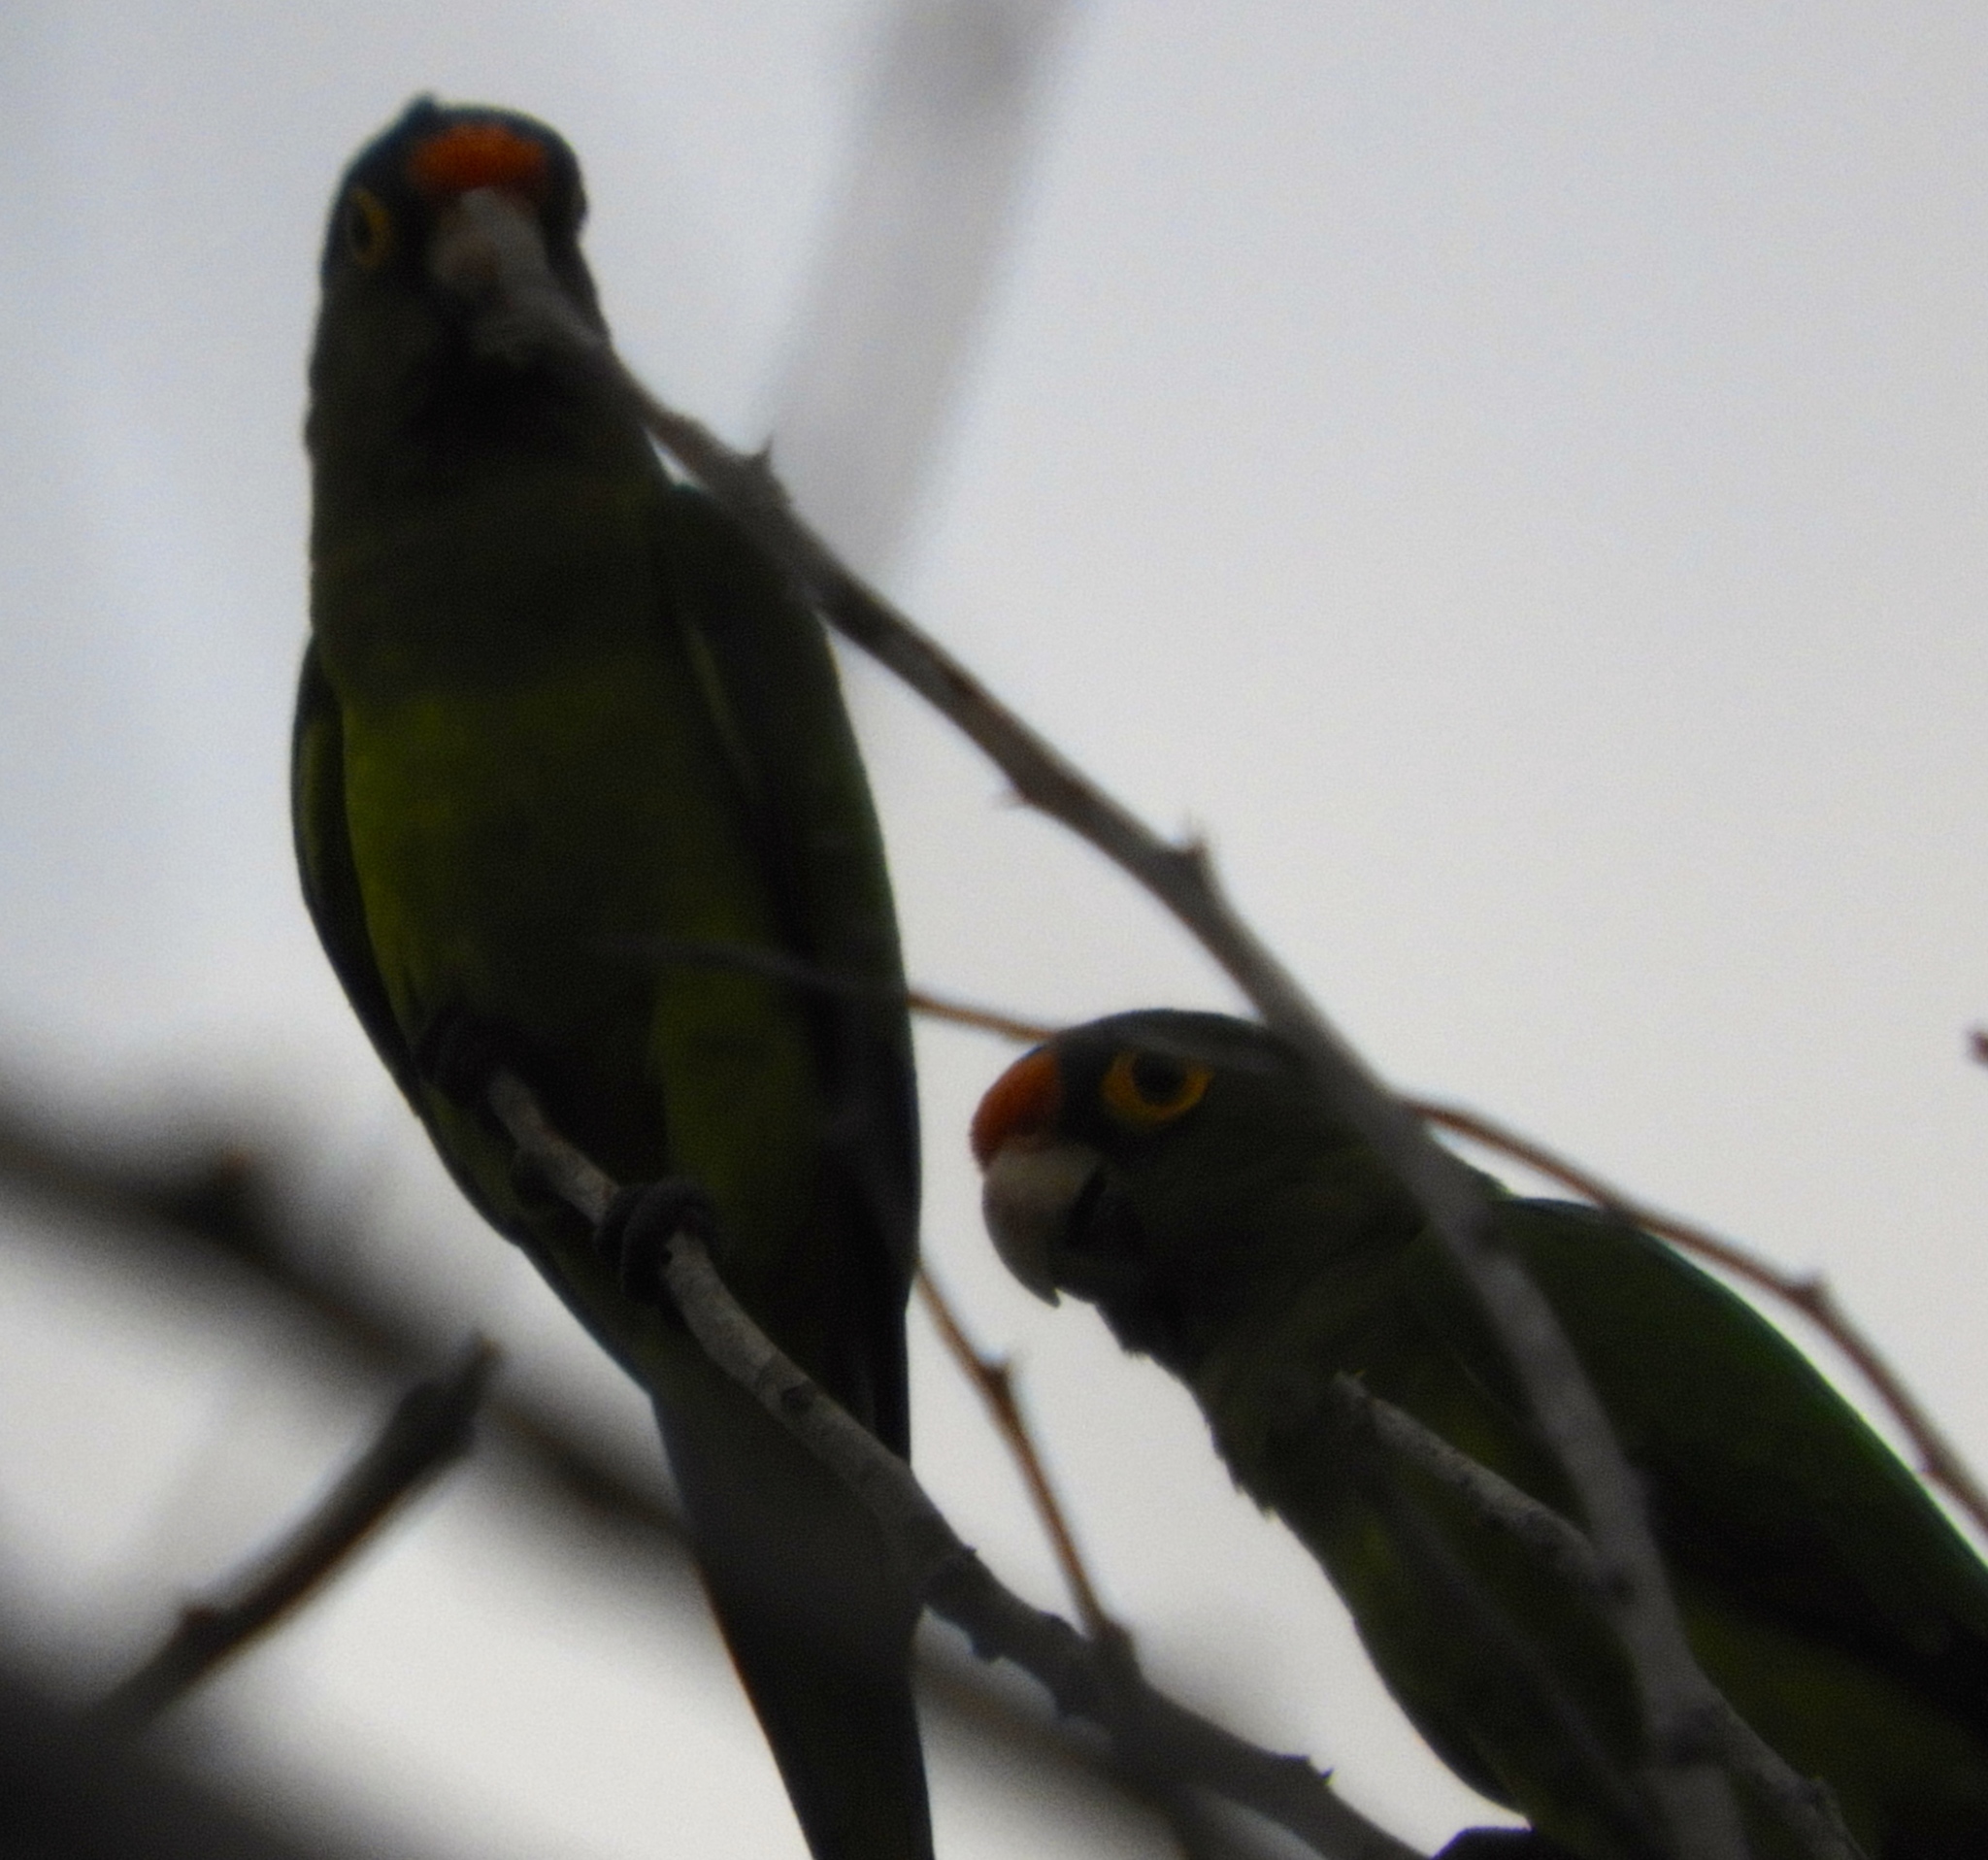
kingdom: Animalia
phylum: Chordata
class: Aves
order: Psittaciformes
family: Psittacidae
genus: Aratinga
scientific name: Aratinga canicularis
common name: Orange-fronted parakeet
